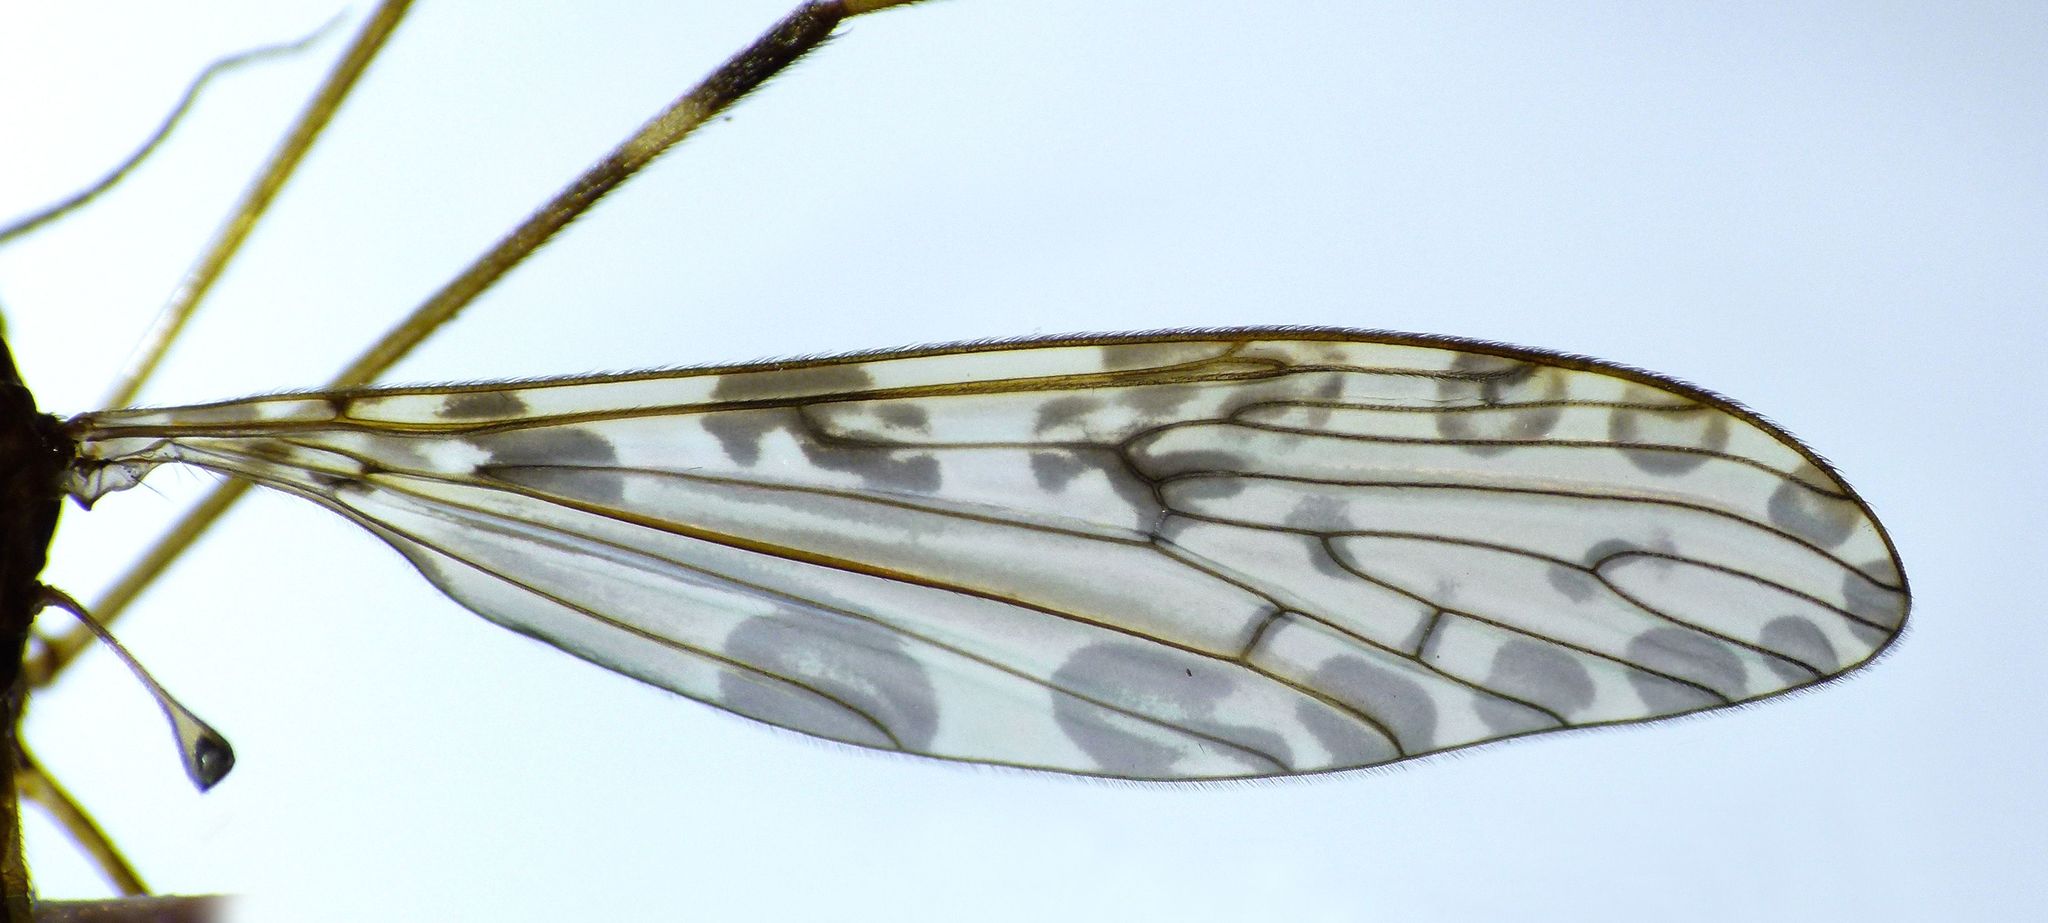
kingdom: Animalia
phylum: Arthropoda
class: Insecta
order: Diptera
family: Limoniidae
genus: Austrolimnophila
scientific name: Austrolimnophila oculata
